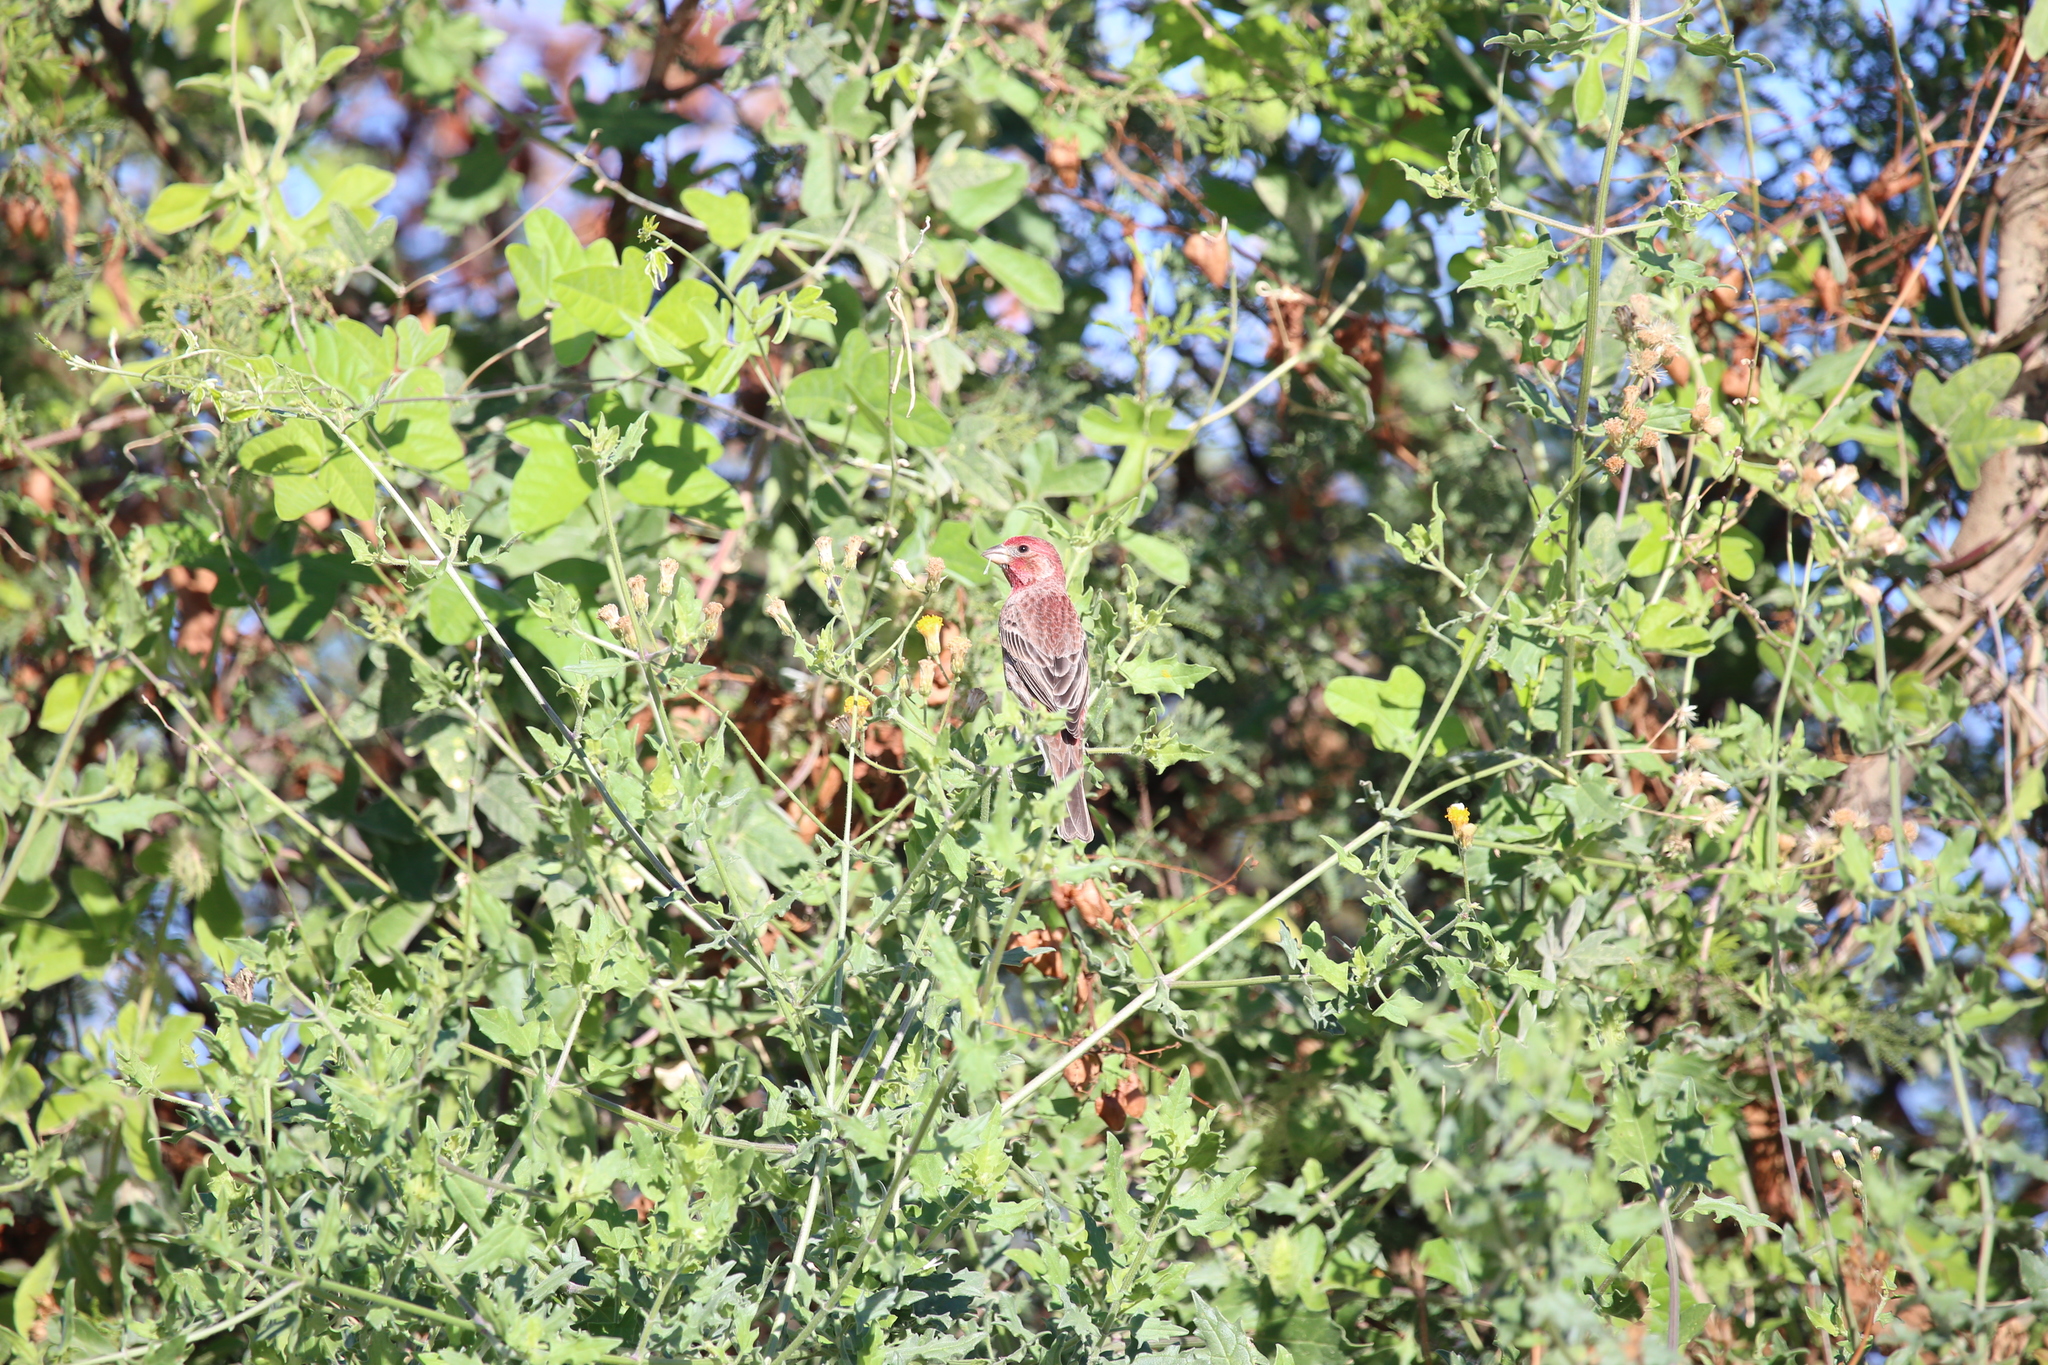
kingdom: Animalia
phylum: Chordata
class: Aves
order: Passeriformes
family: Fringillidae
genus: Haemorhous
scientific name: Haemorhous mexicanus
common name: House finch
